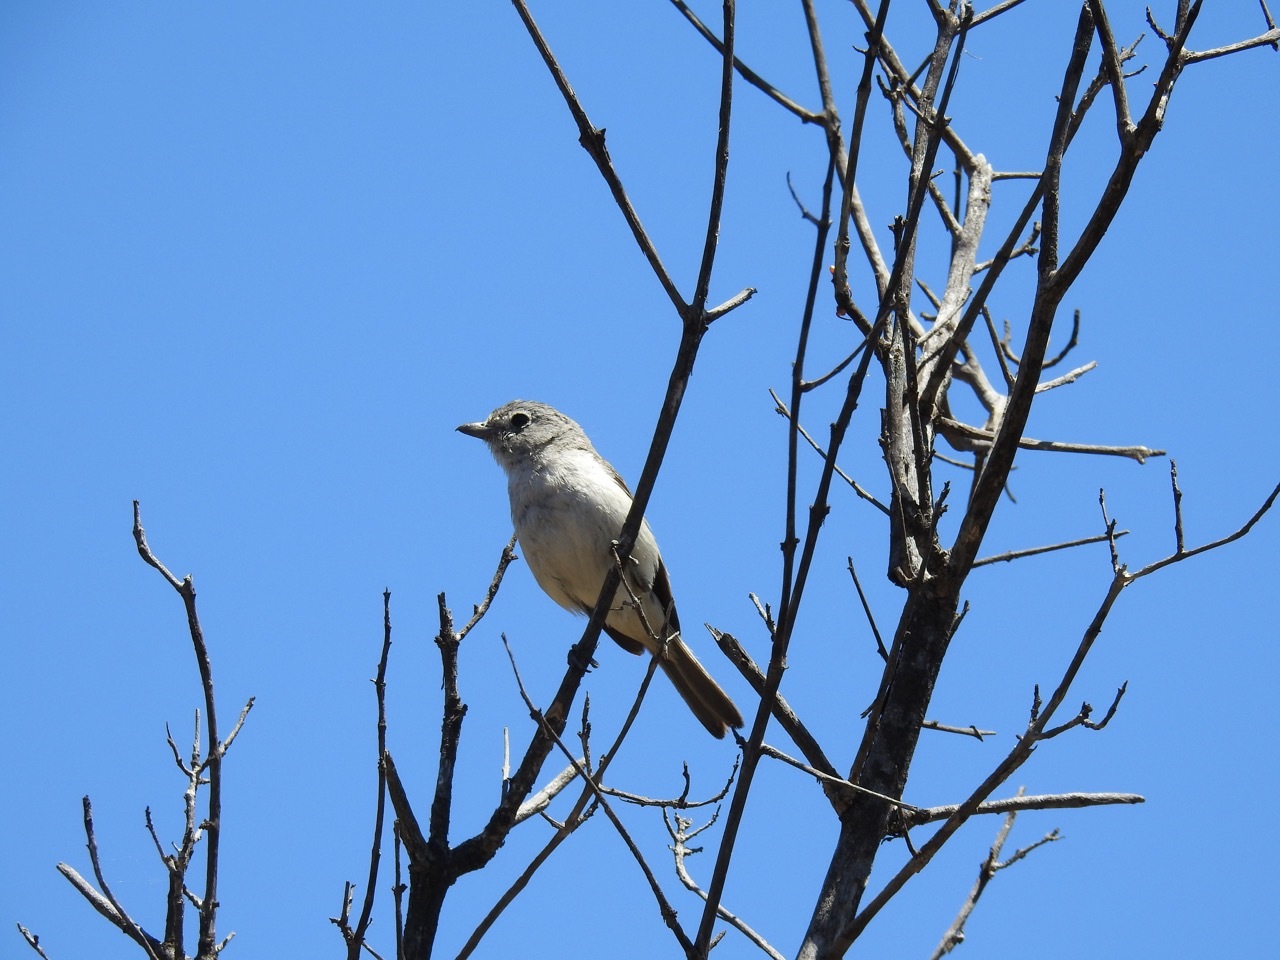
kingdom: Animalia
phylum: Chordata
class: Aves
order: Passeriformes
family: Vireonidae
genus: Vireo
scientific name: Vireo vicinior
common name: Gray vireo
